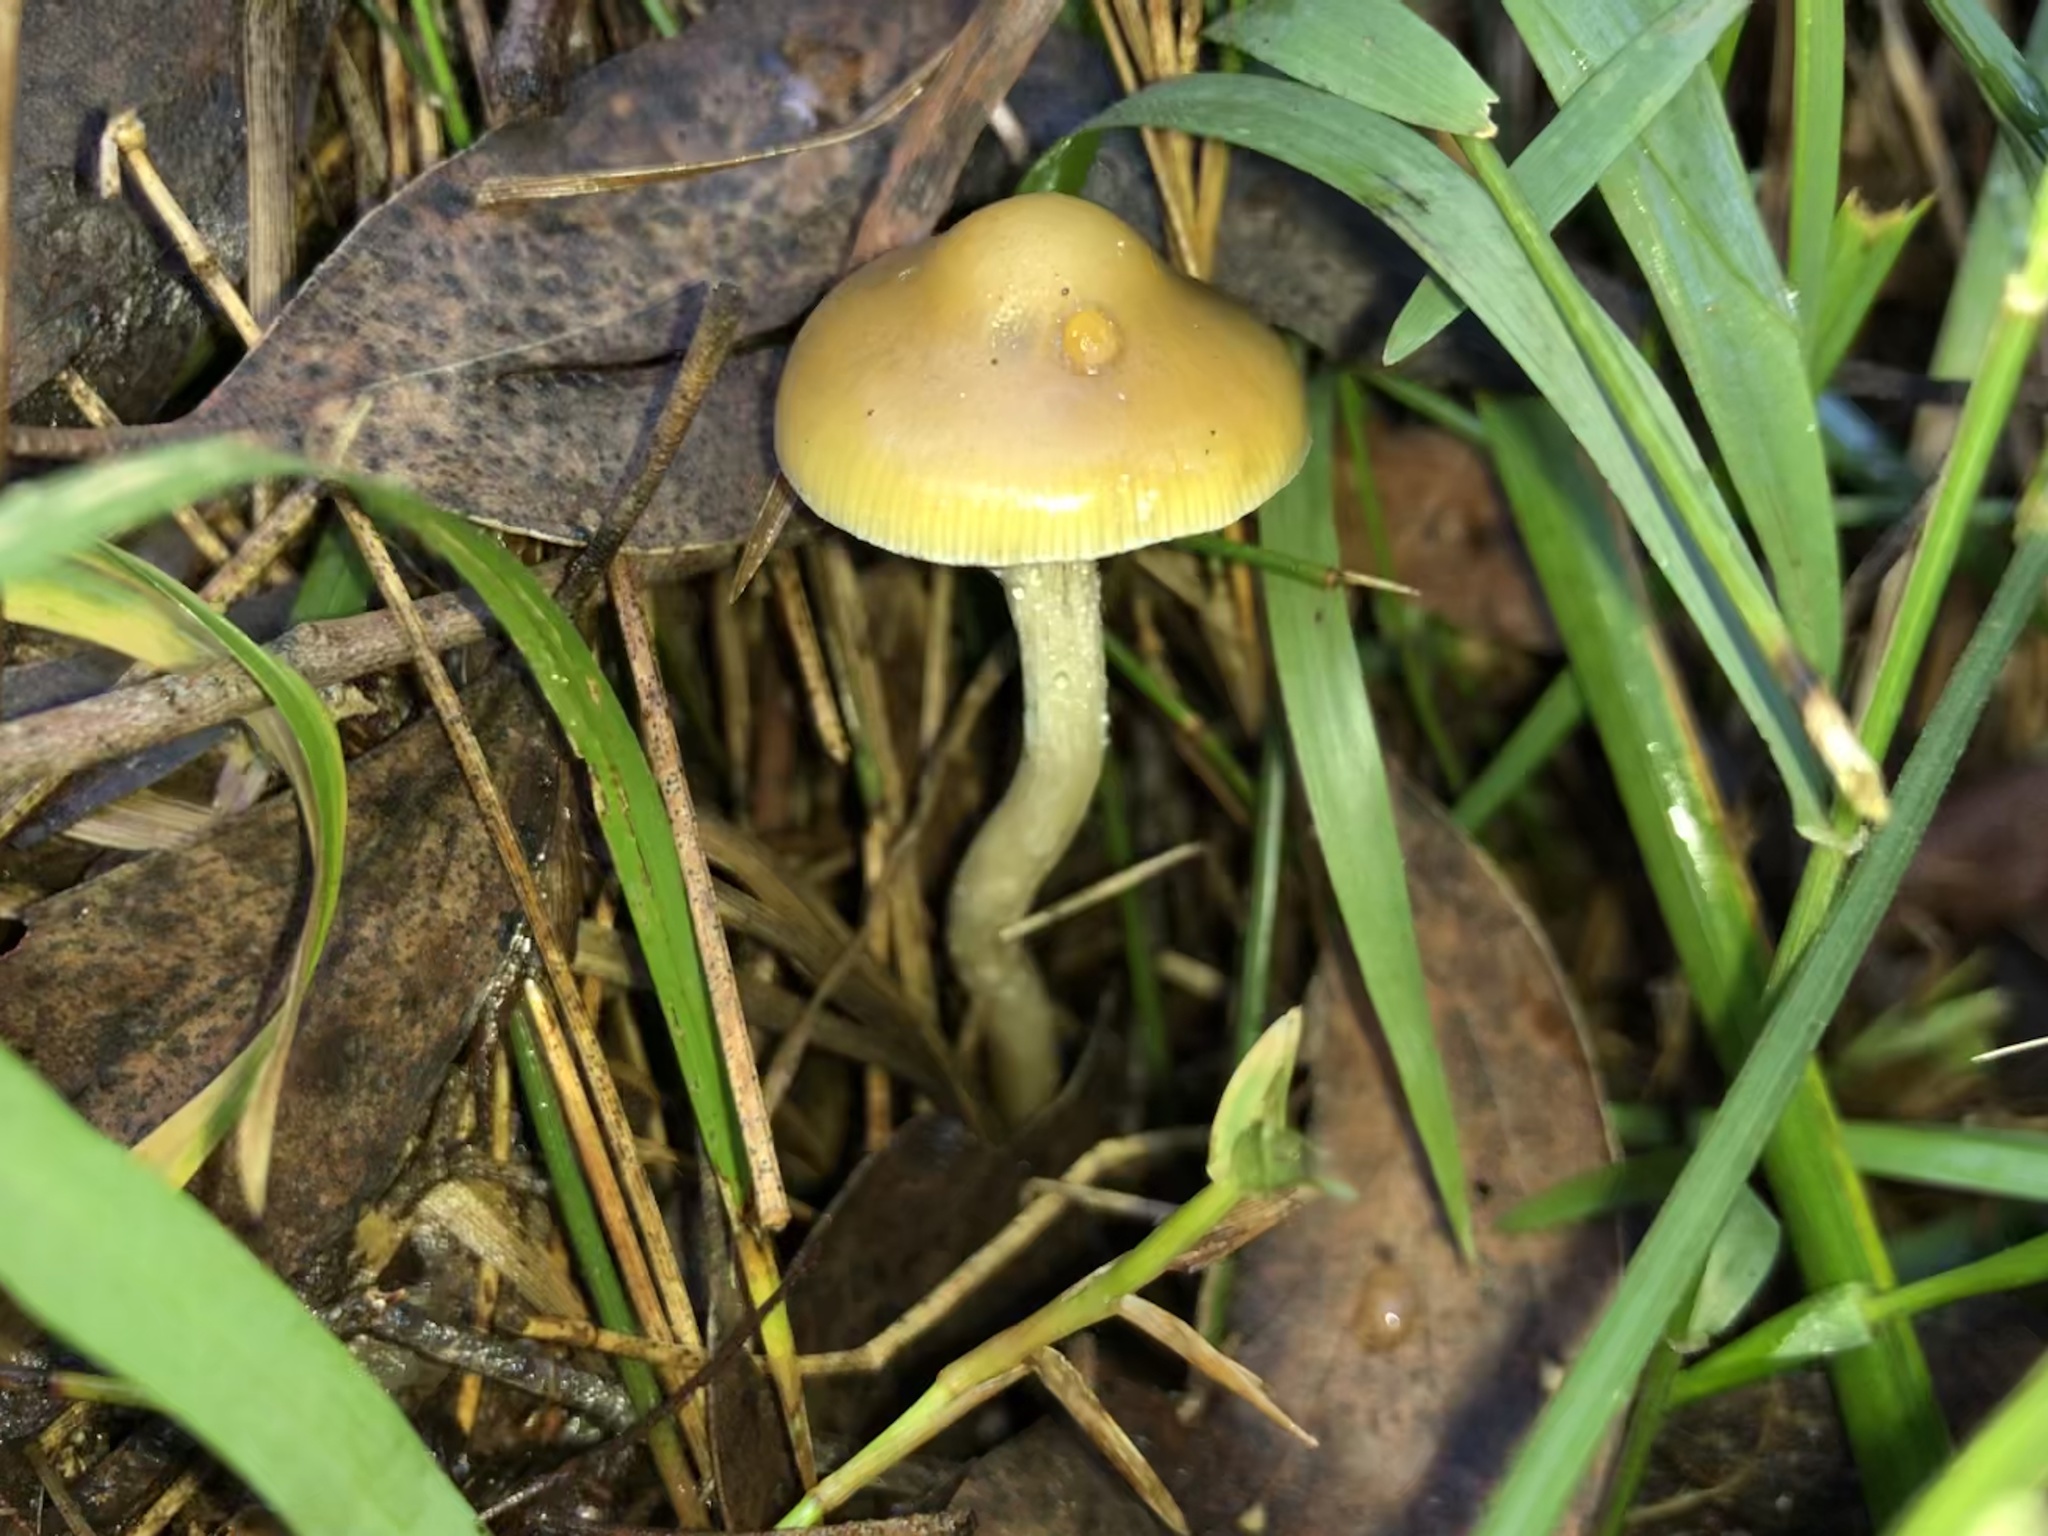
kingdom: Fungi
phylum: Basidiomycota
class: Agaricomycetes
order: Agaricales
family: Hymenogastraceae
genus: Psilocybe
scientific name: Psilocybe subaeruginosa
